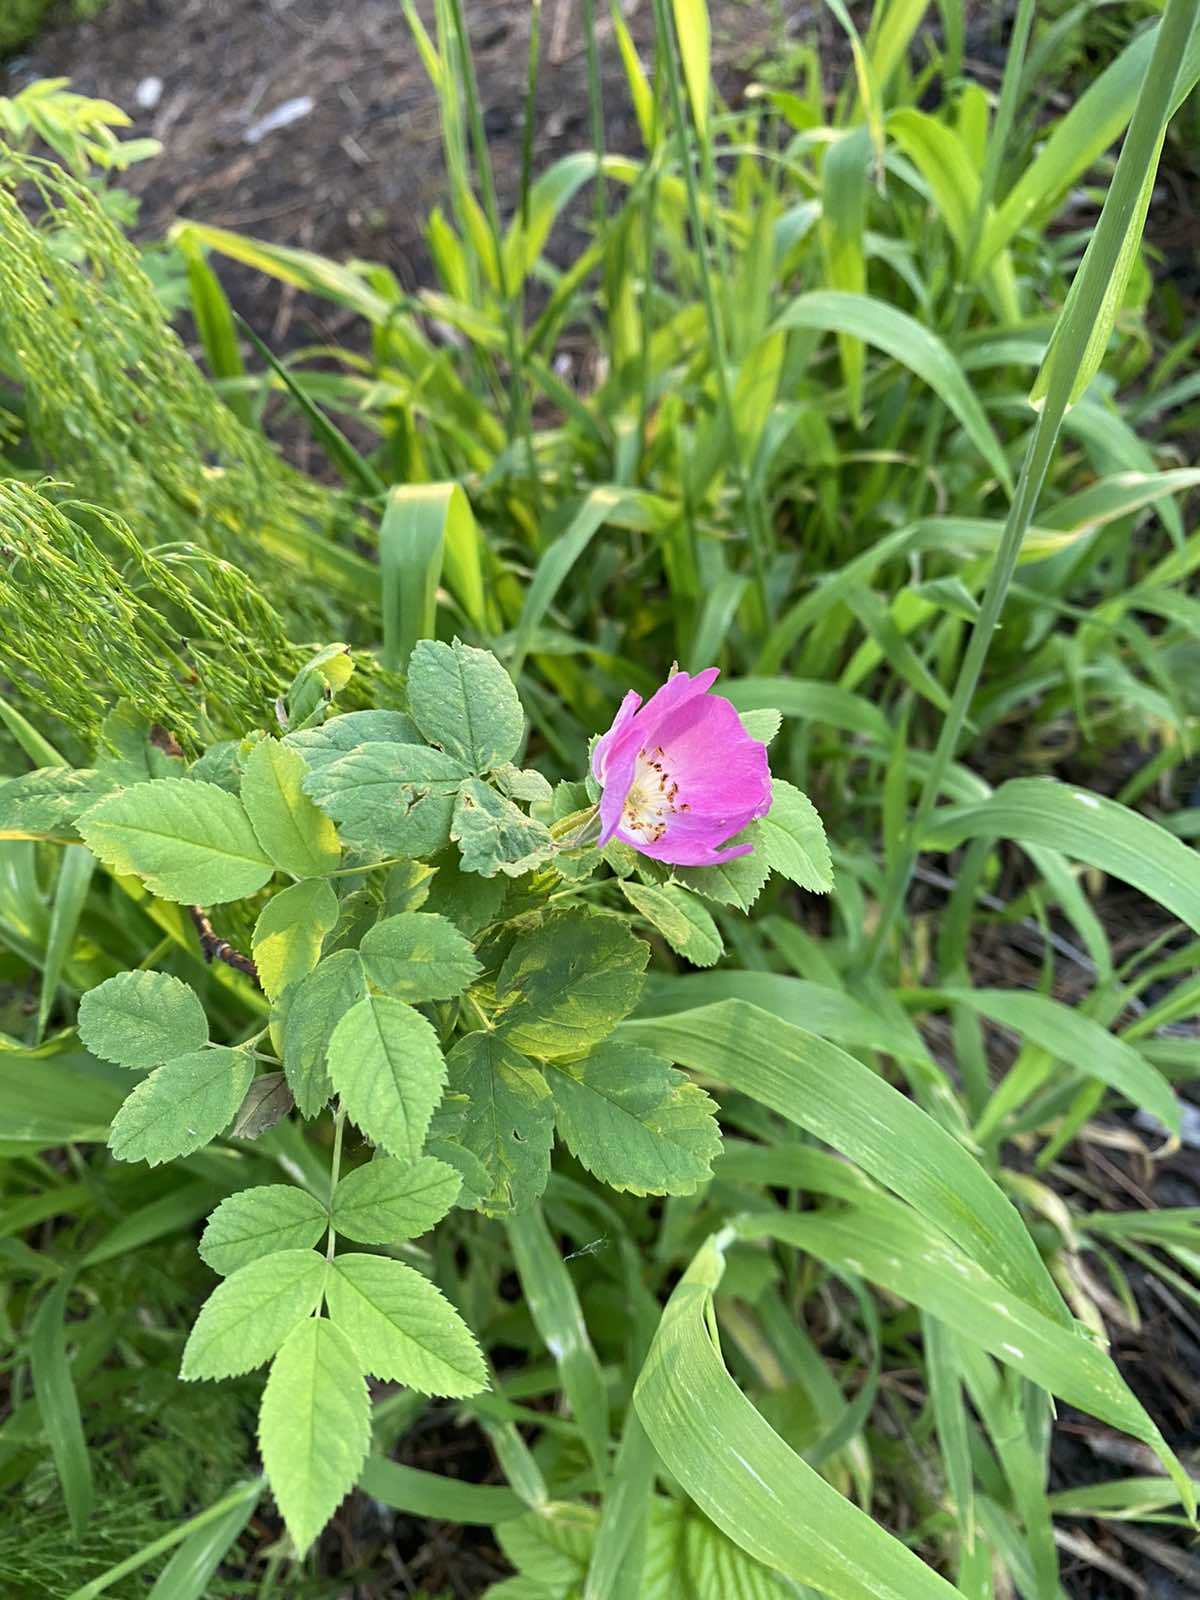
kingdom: Plantae
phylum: Tracheophyta
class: Magnoliopsida
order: Rosales
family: Rosaceae
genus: Rosa
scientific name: Rosa acicularis
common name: Prickly rose
